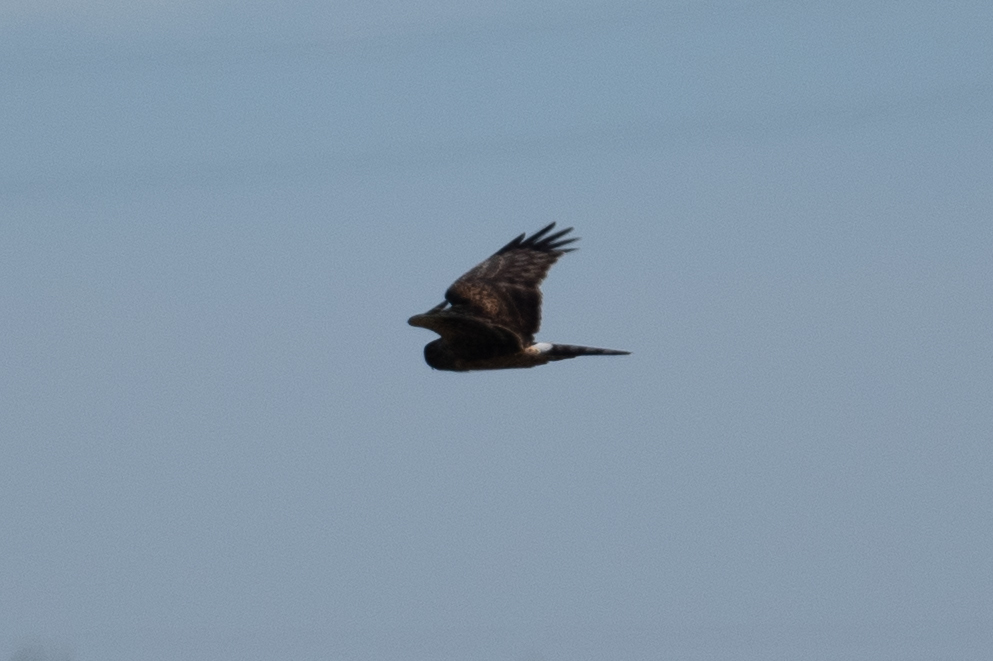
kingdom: Animalia
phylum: Chordata
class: Aves
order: Accipitriformes
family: Accipitridae
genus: Circus
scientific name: Circus cyaneus
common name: Hen harrier
